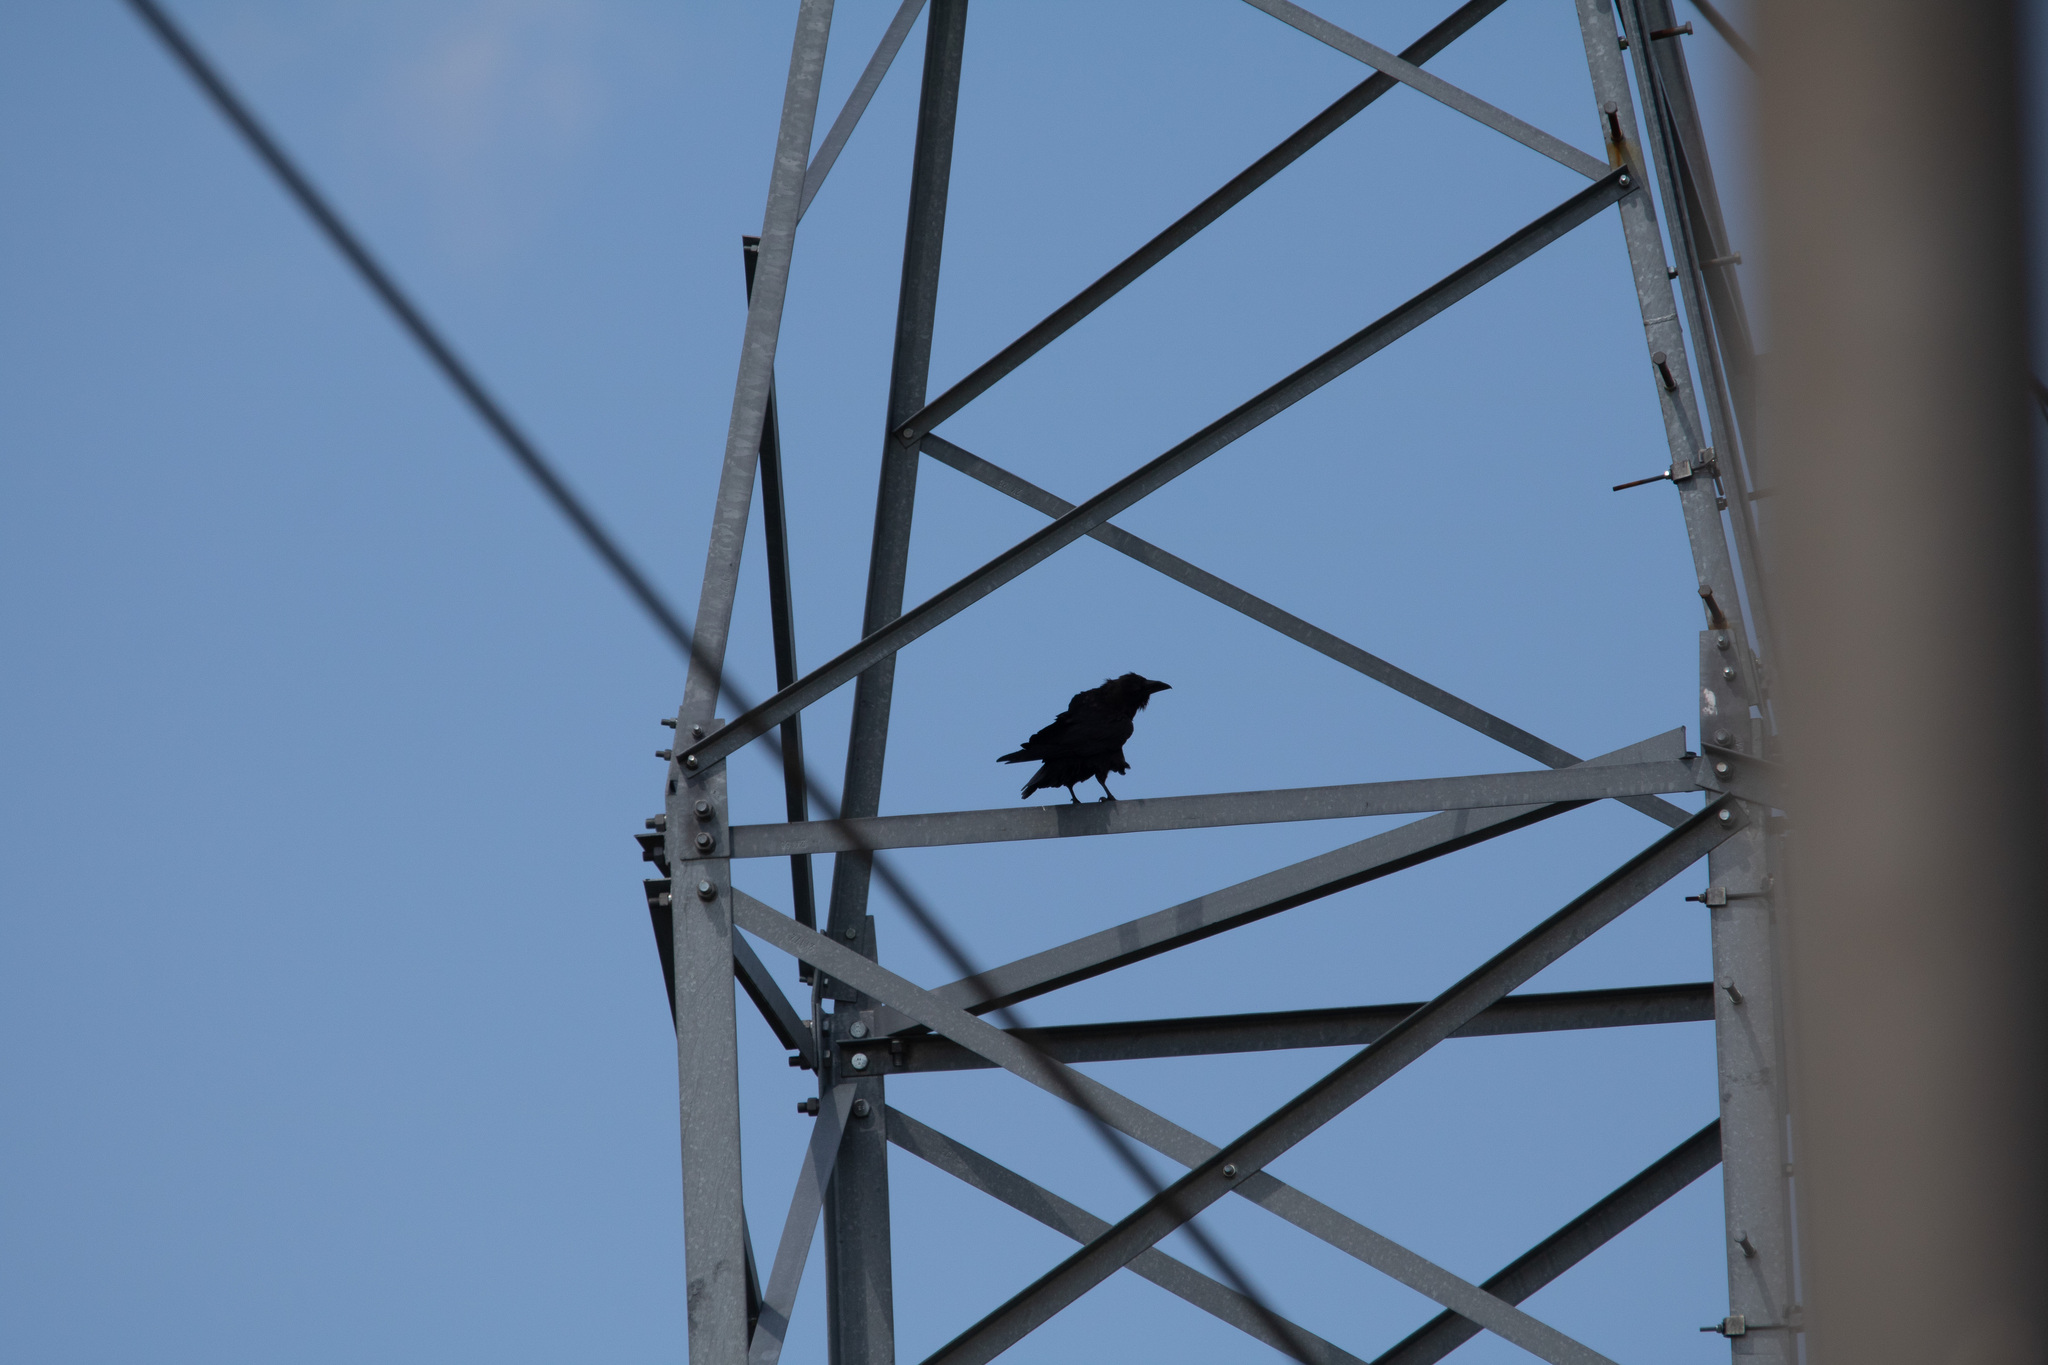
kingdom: Animalia
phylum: Chordata
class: Aves
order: Passeriformes
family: Corvidae
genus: Corvus
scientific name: Corvus corax
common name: Common raven
